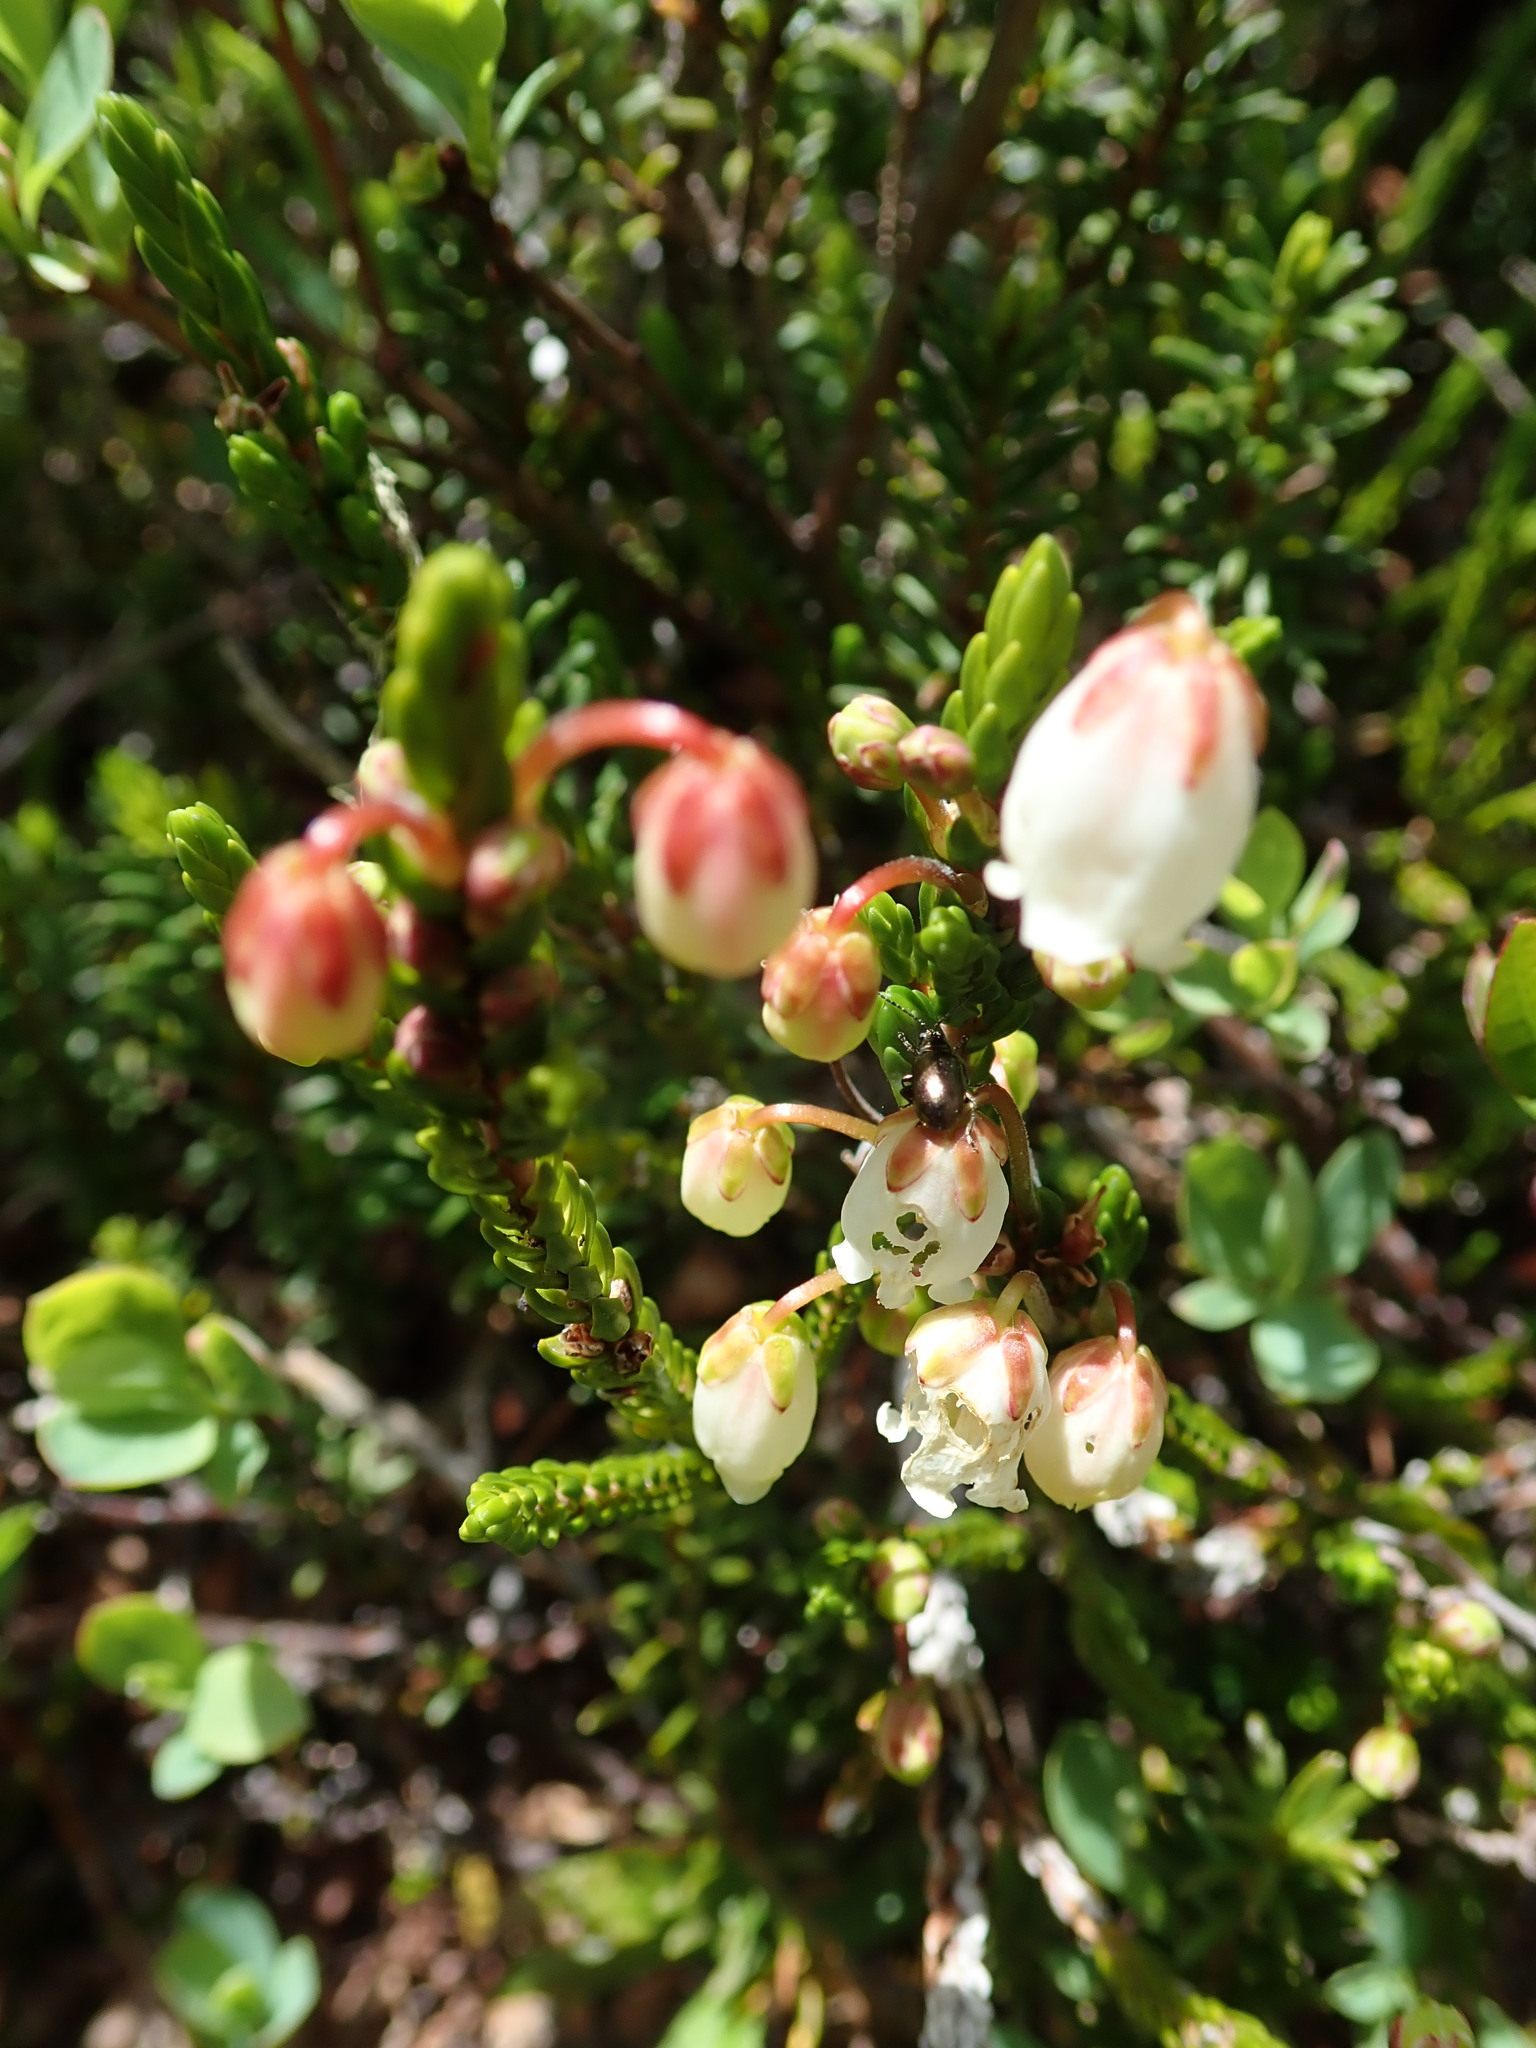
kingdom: Plantae
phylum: Tracheophyta
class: Magnoliopsida
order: Ericales
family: Ericaceae
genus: Cassiope
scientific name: Cassiope mertensiana
